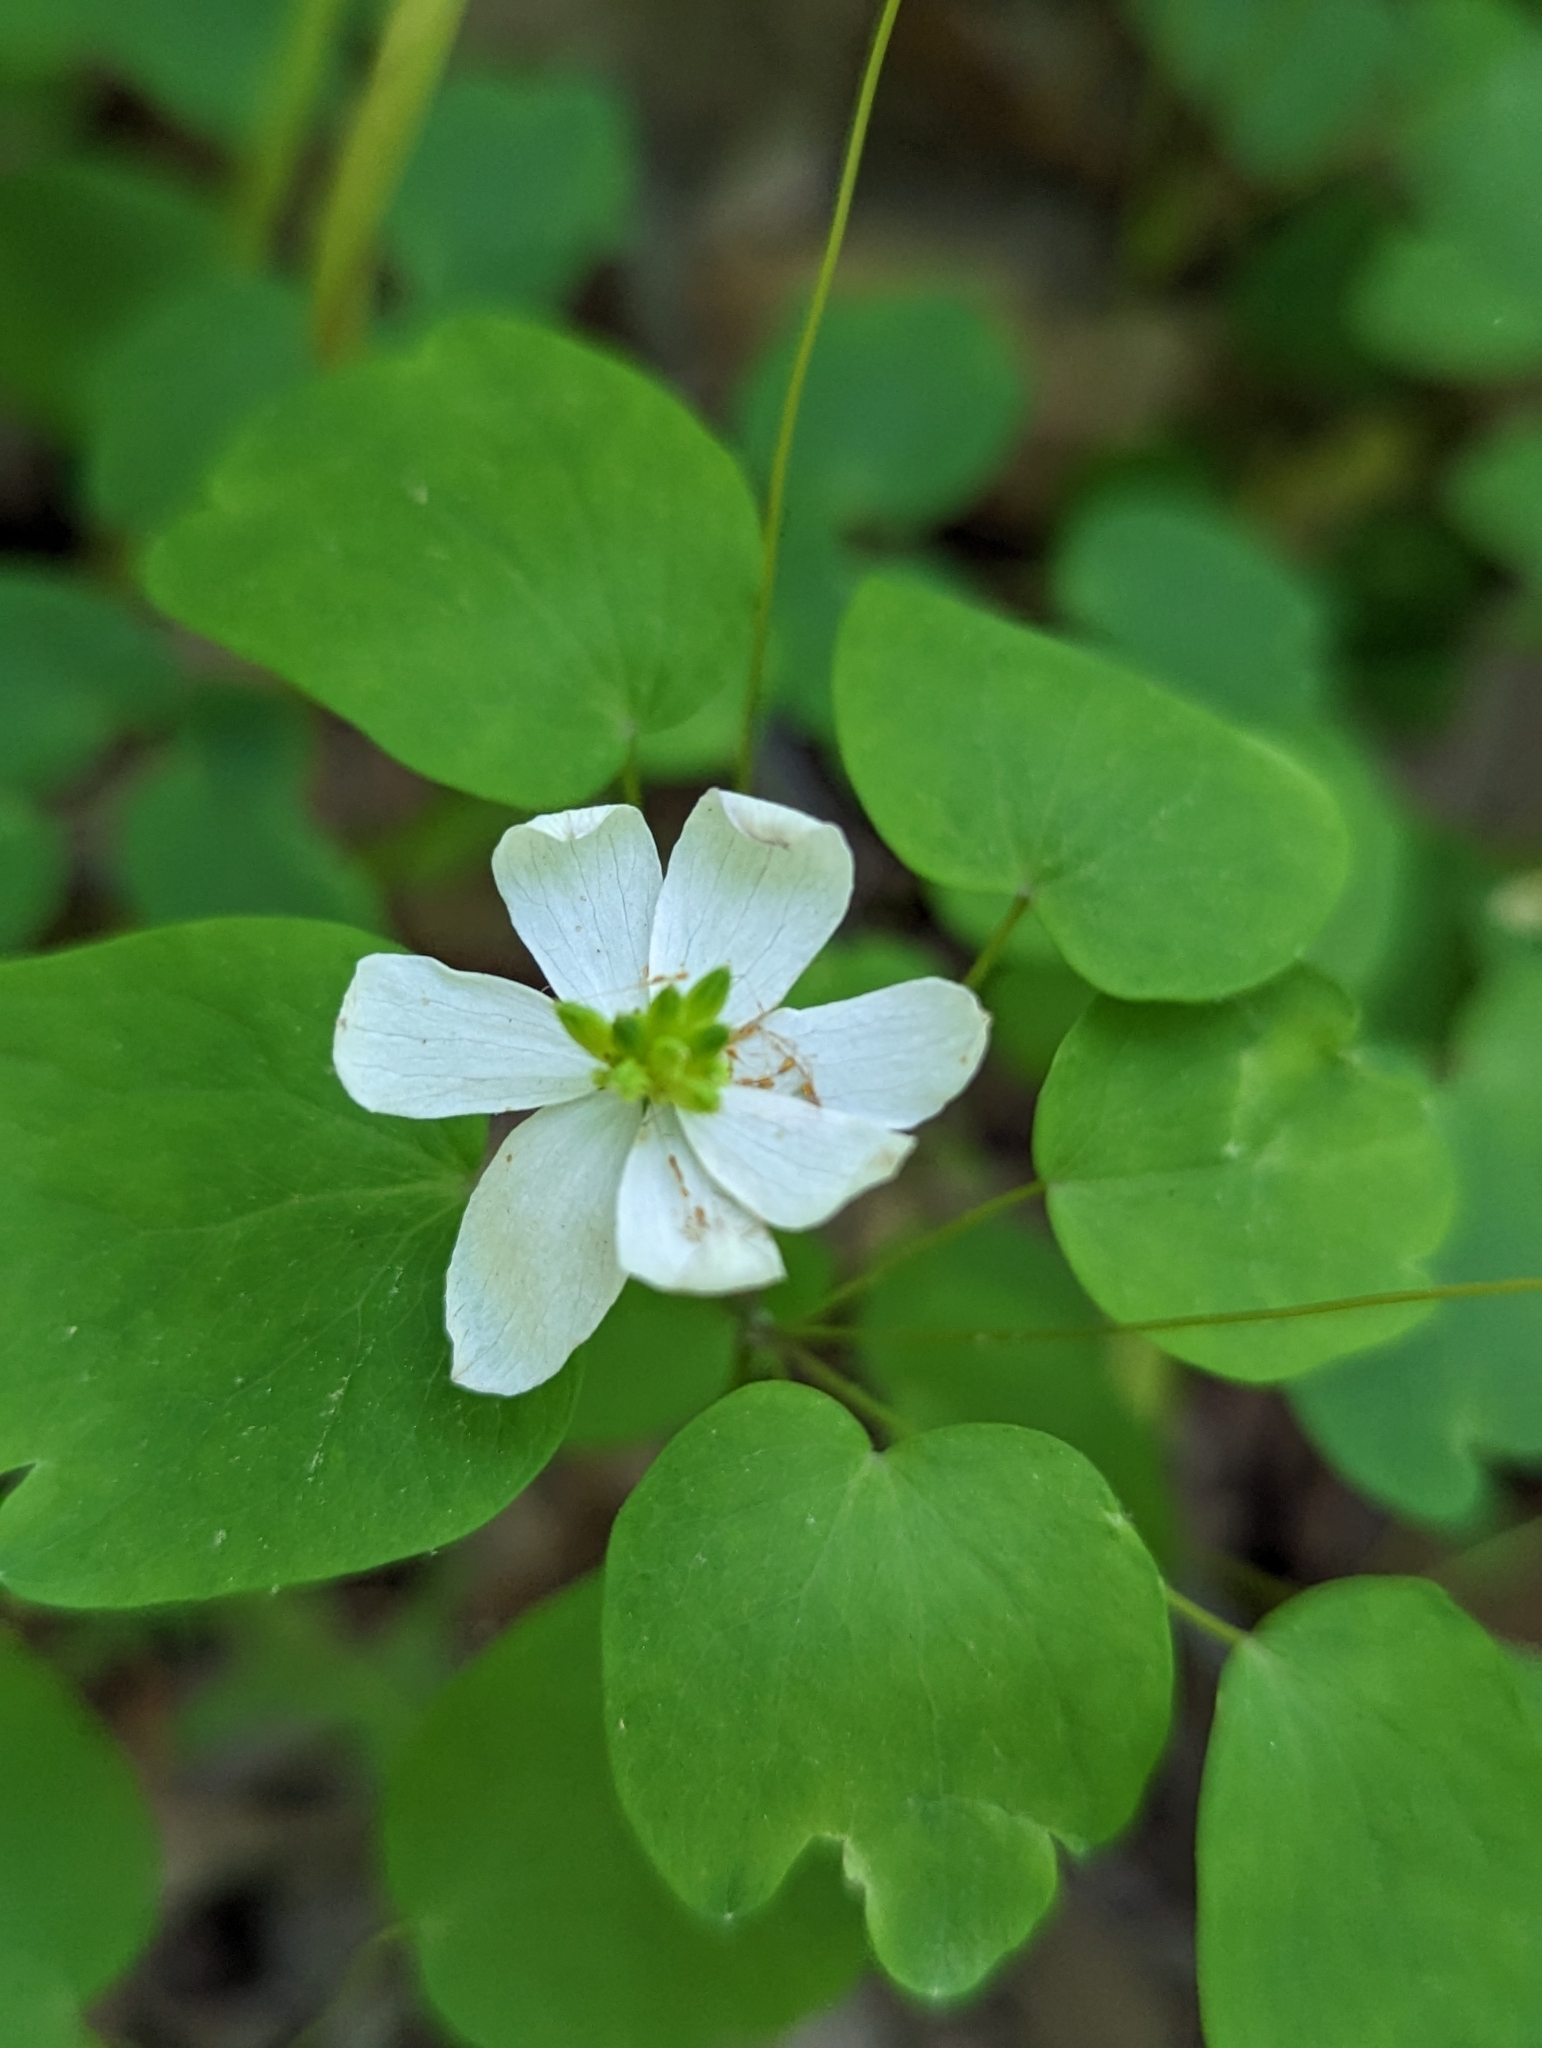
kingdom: Plantae
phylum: Tracheophyta
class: Magnoliopsida
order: Ranunculales
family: Ranunculaceae
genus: Thalictrum
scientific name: Thalictrum thalictroides
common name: Rue-anemone
